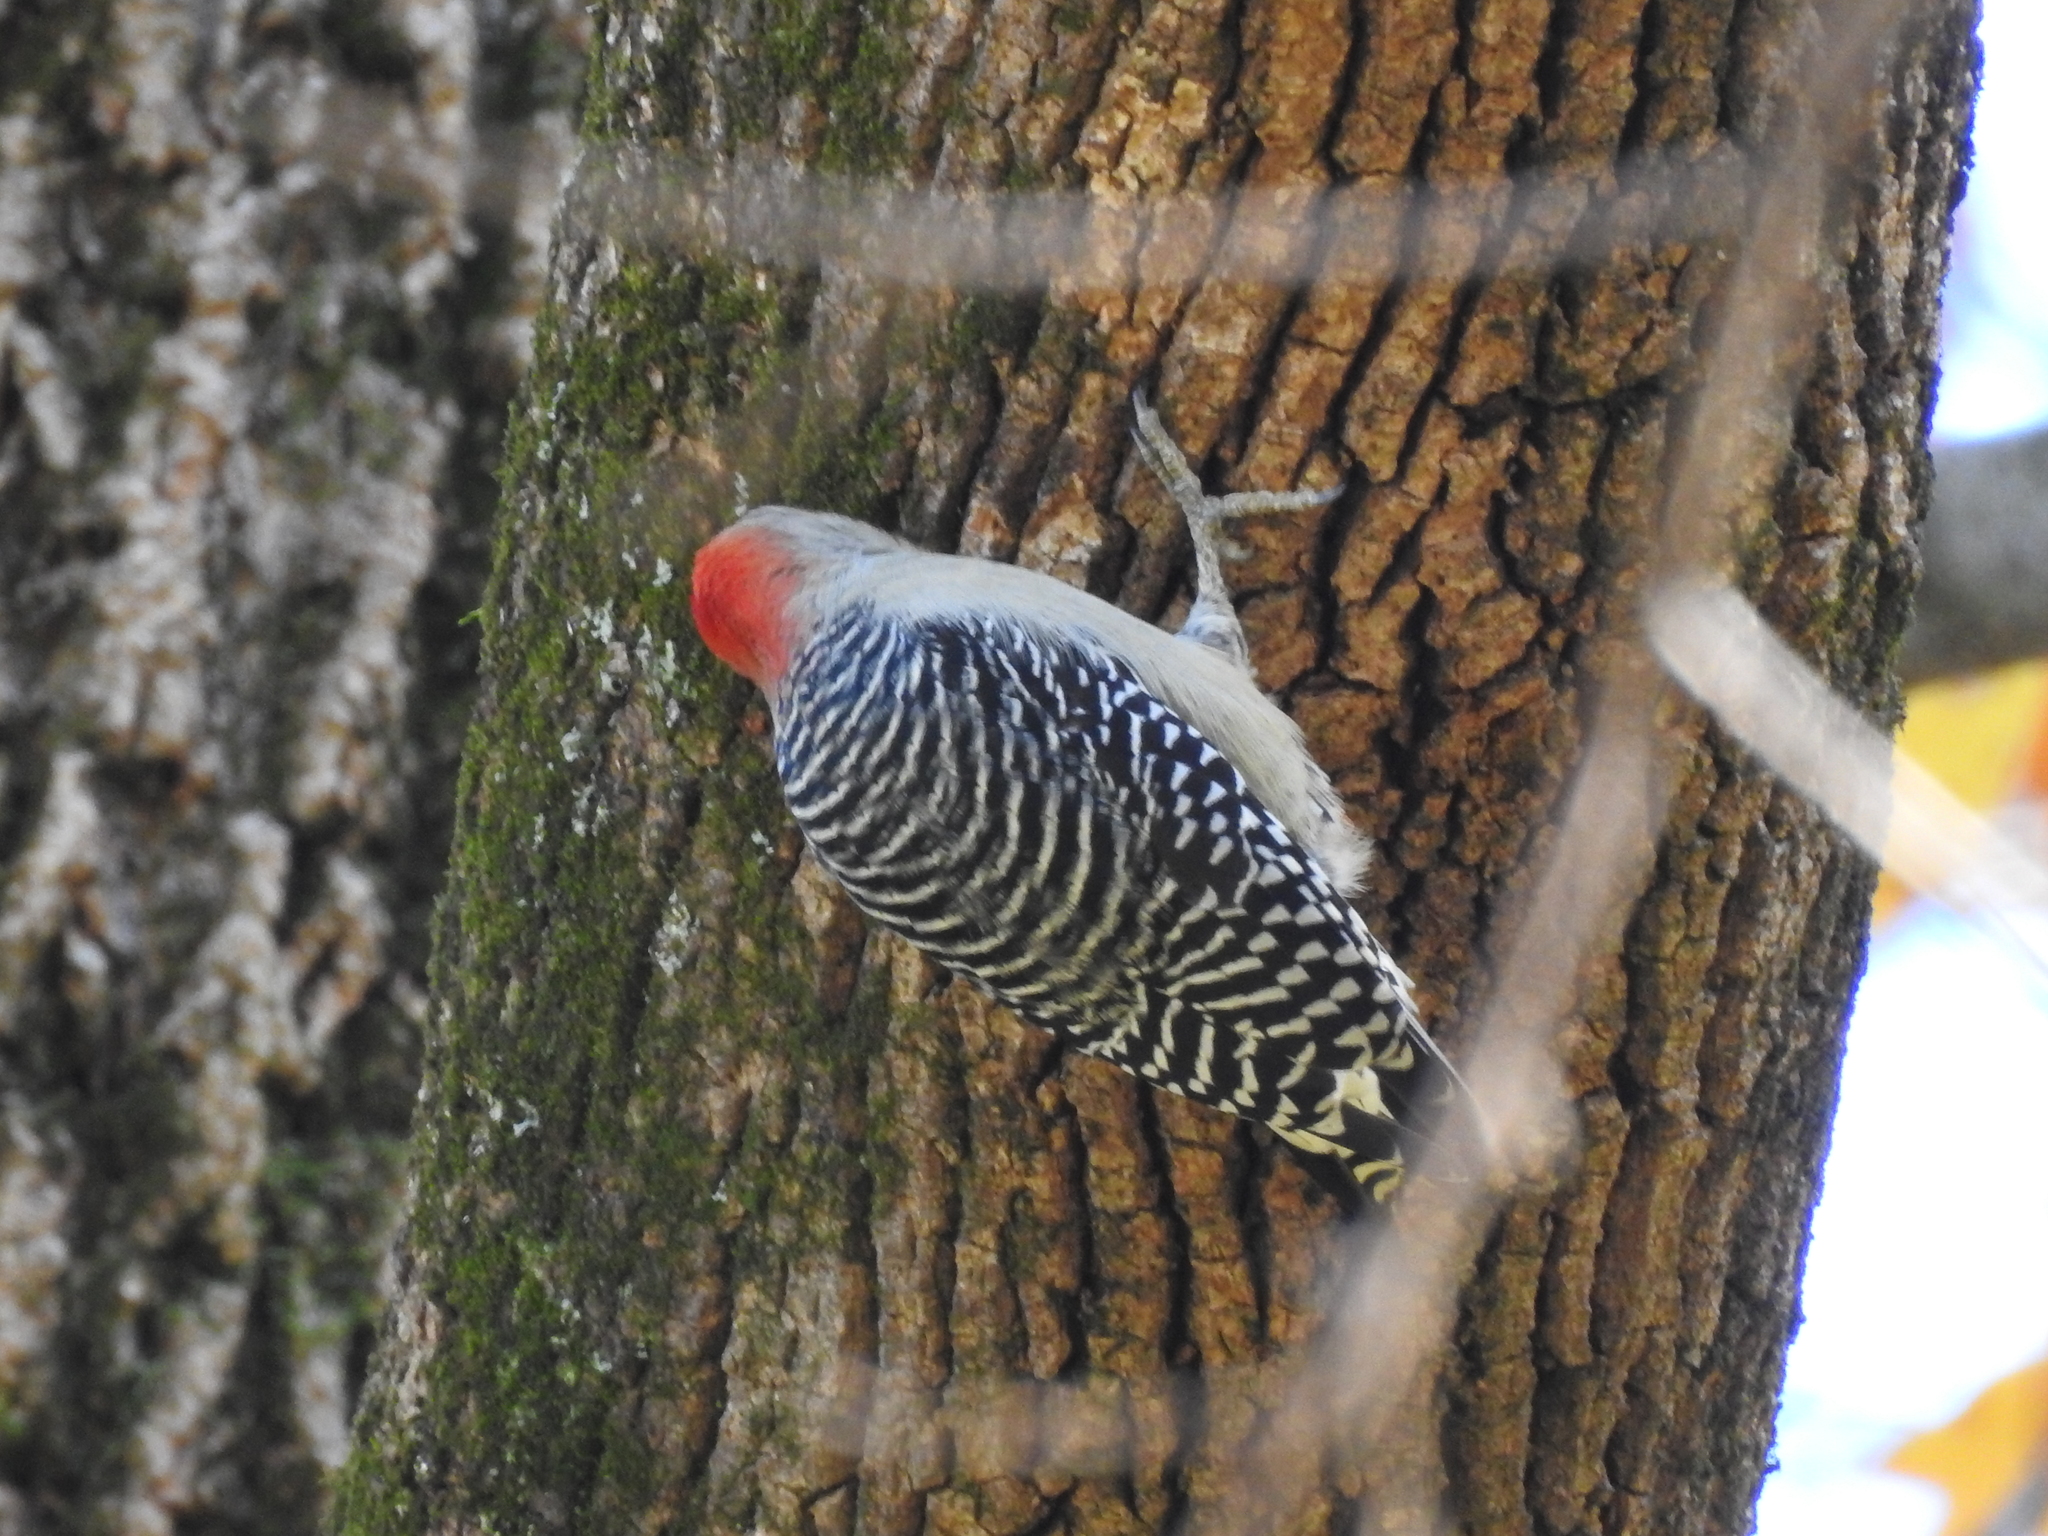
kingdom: Animalia
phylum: Chordata
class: Aves
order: Piciformes
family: Picidae
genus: Melanerpes
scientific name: Melanerpes carolinus
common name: Red-bellied woodpecker
